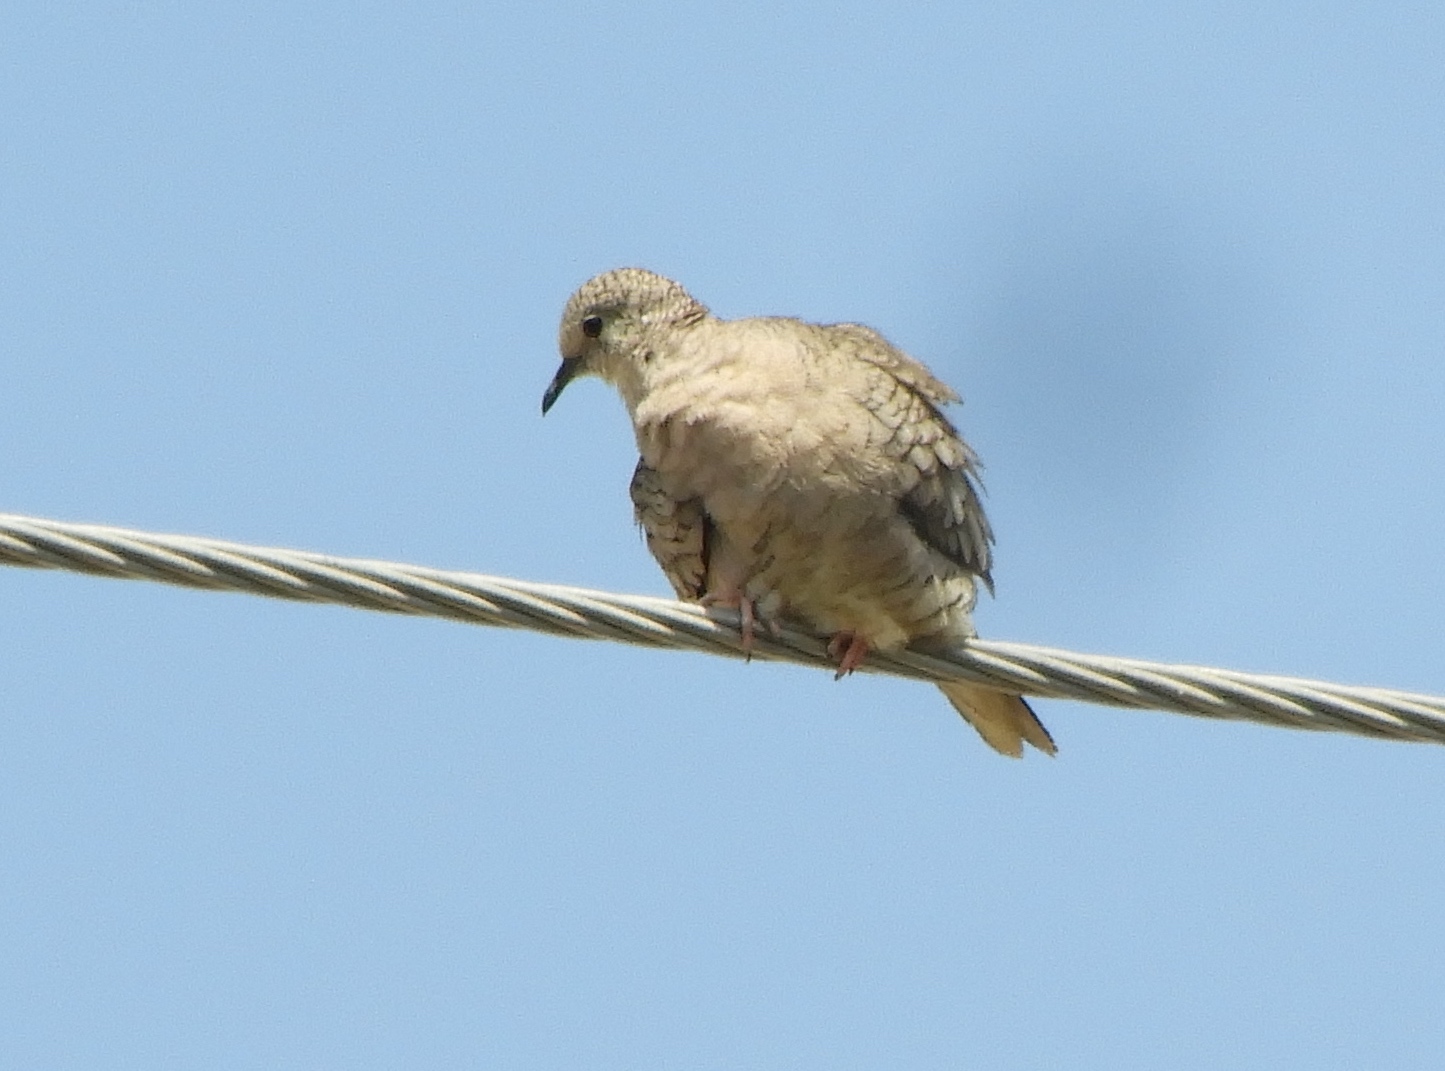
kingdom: Animalia
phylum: Chordata
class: Aves
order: Columbiformes
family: Columbidae
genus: Columbina
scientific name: Columbina inca
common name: Inca dove
